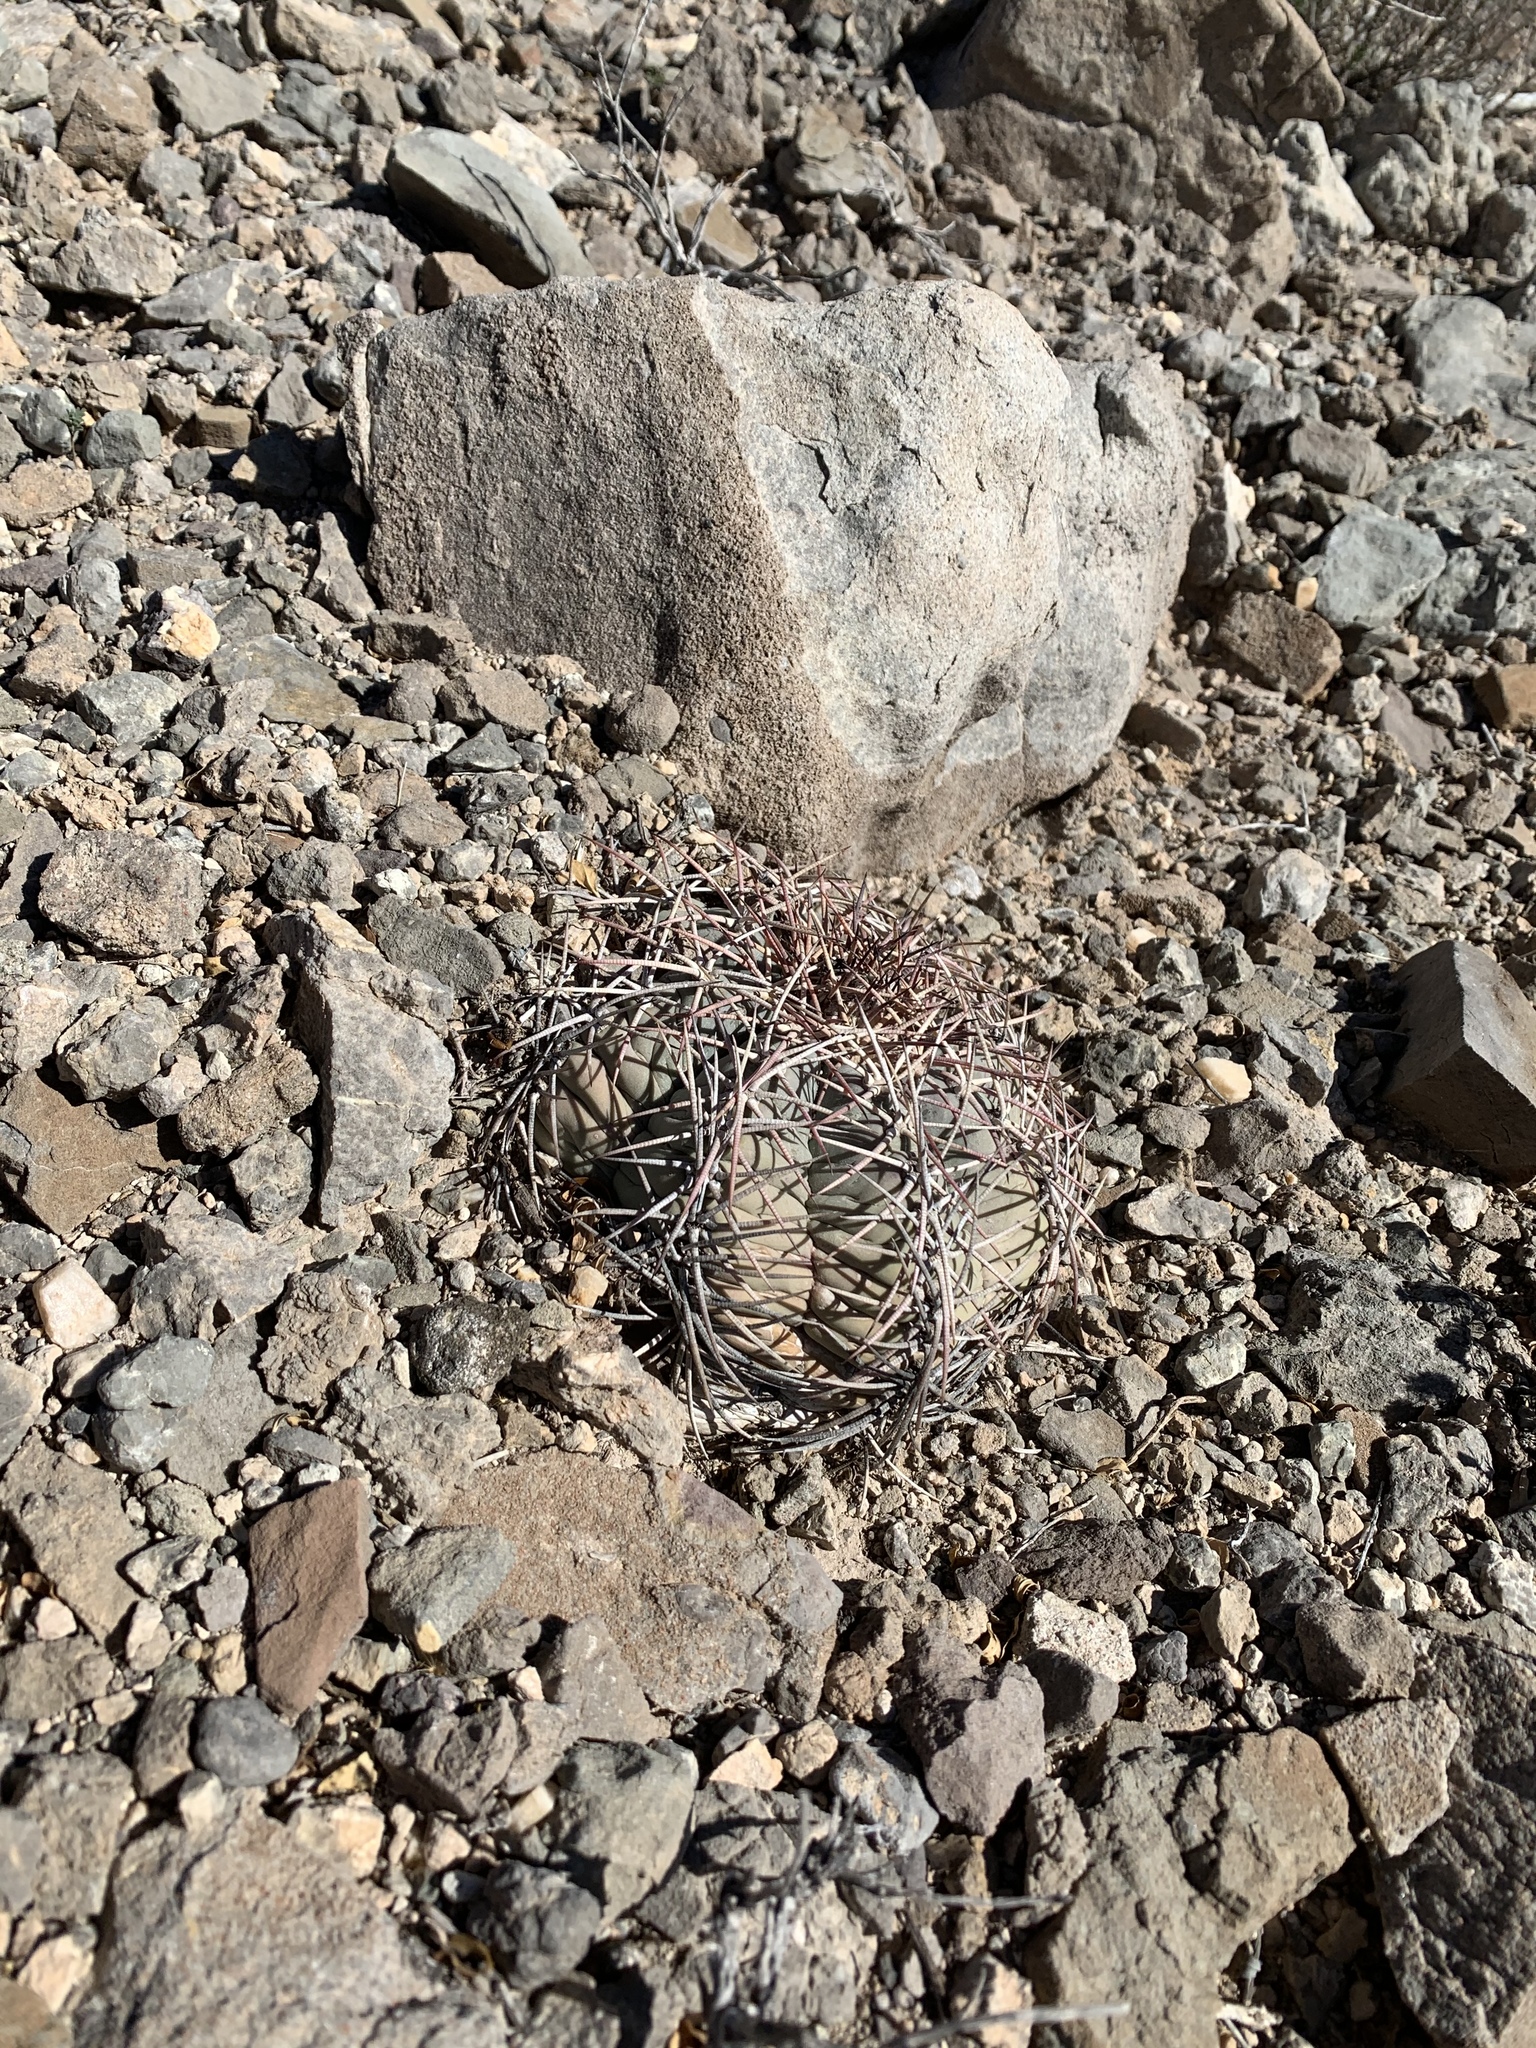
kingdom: Plantae
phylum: Tracheophyta
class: Magnoliopsida
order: Caryophyllales
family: Cactaceae
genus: Echinocactus
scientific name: Echinocactus horizonthalonius
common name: Devilshead
